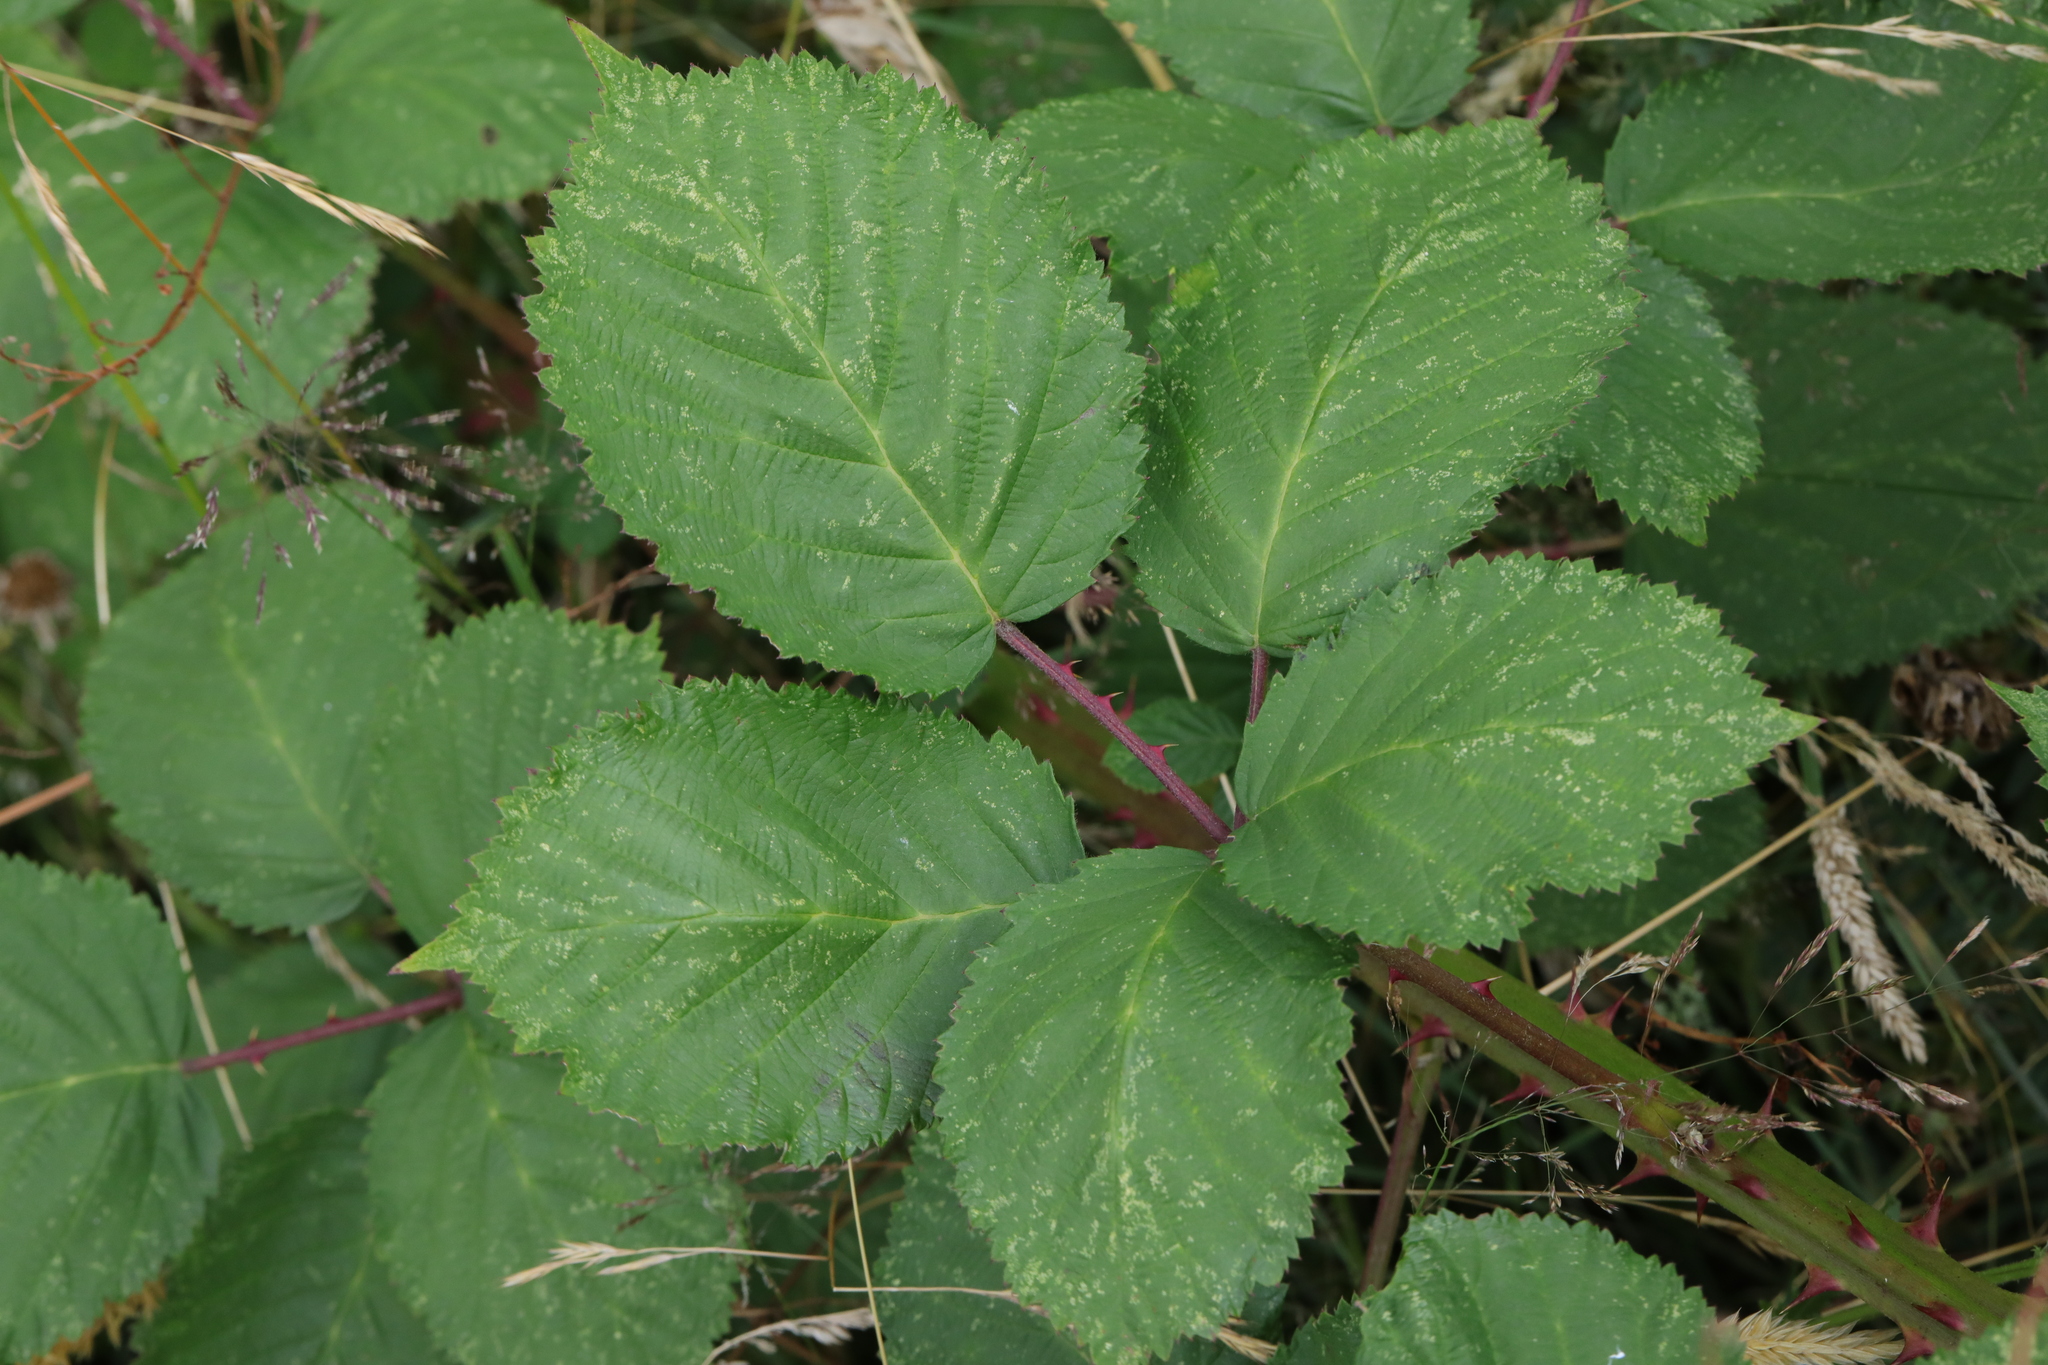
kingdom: Plantae
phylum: Tracheophyta
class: Magnoliopsida
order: Rosales
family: Rosaceae
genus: Rubus
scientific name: Rubus armeniacus
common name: Himalayan blackberry
